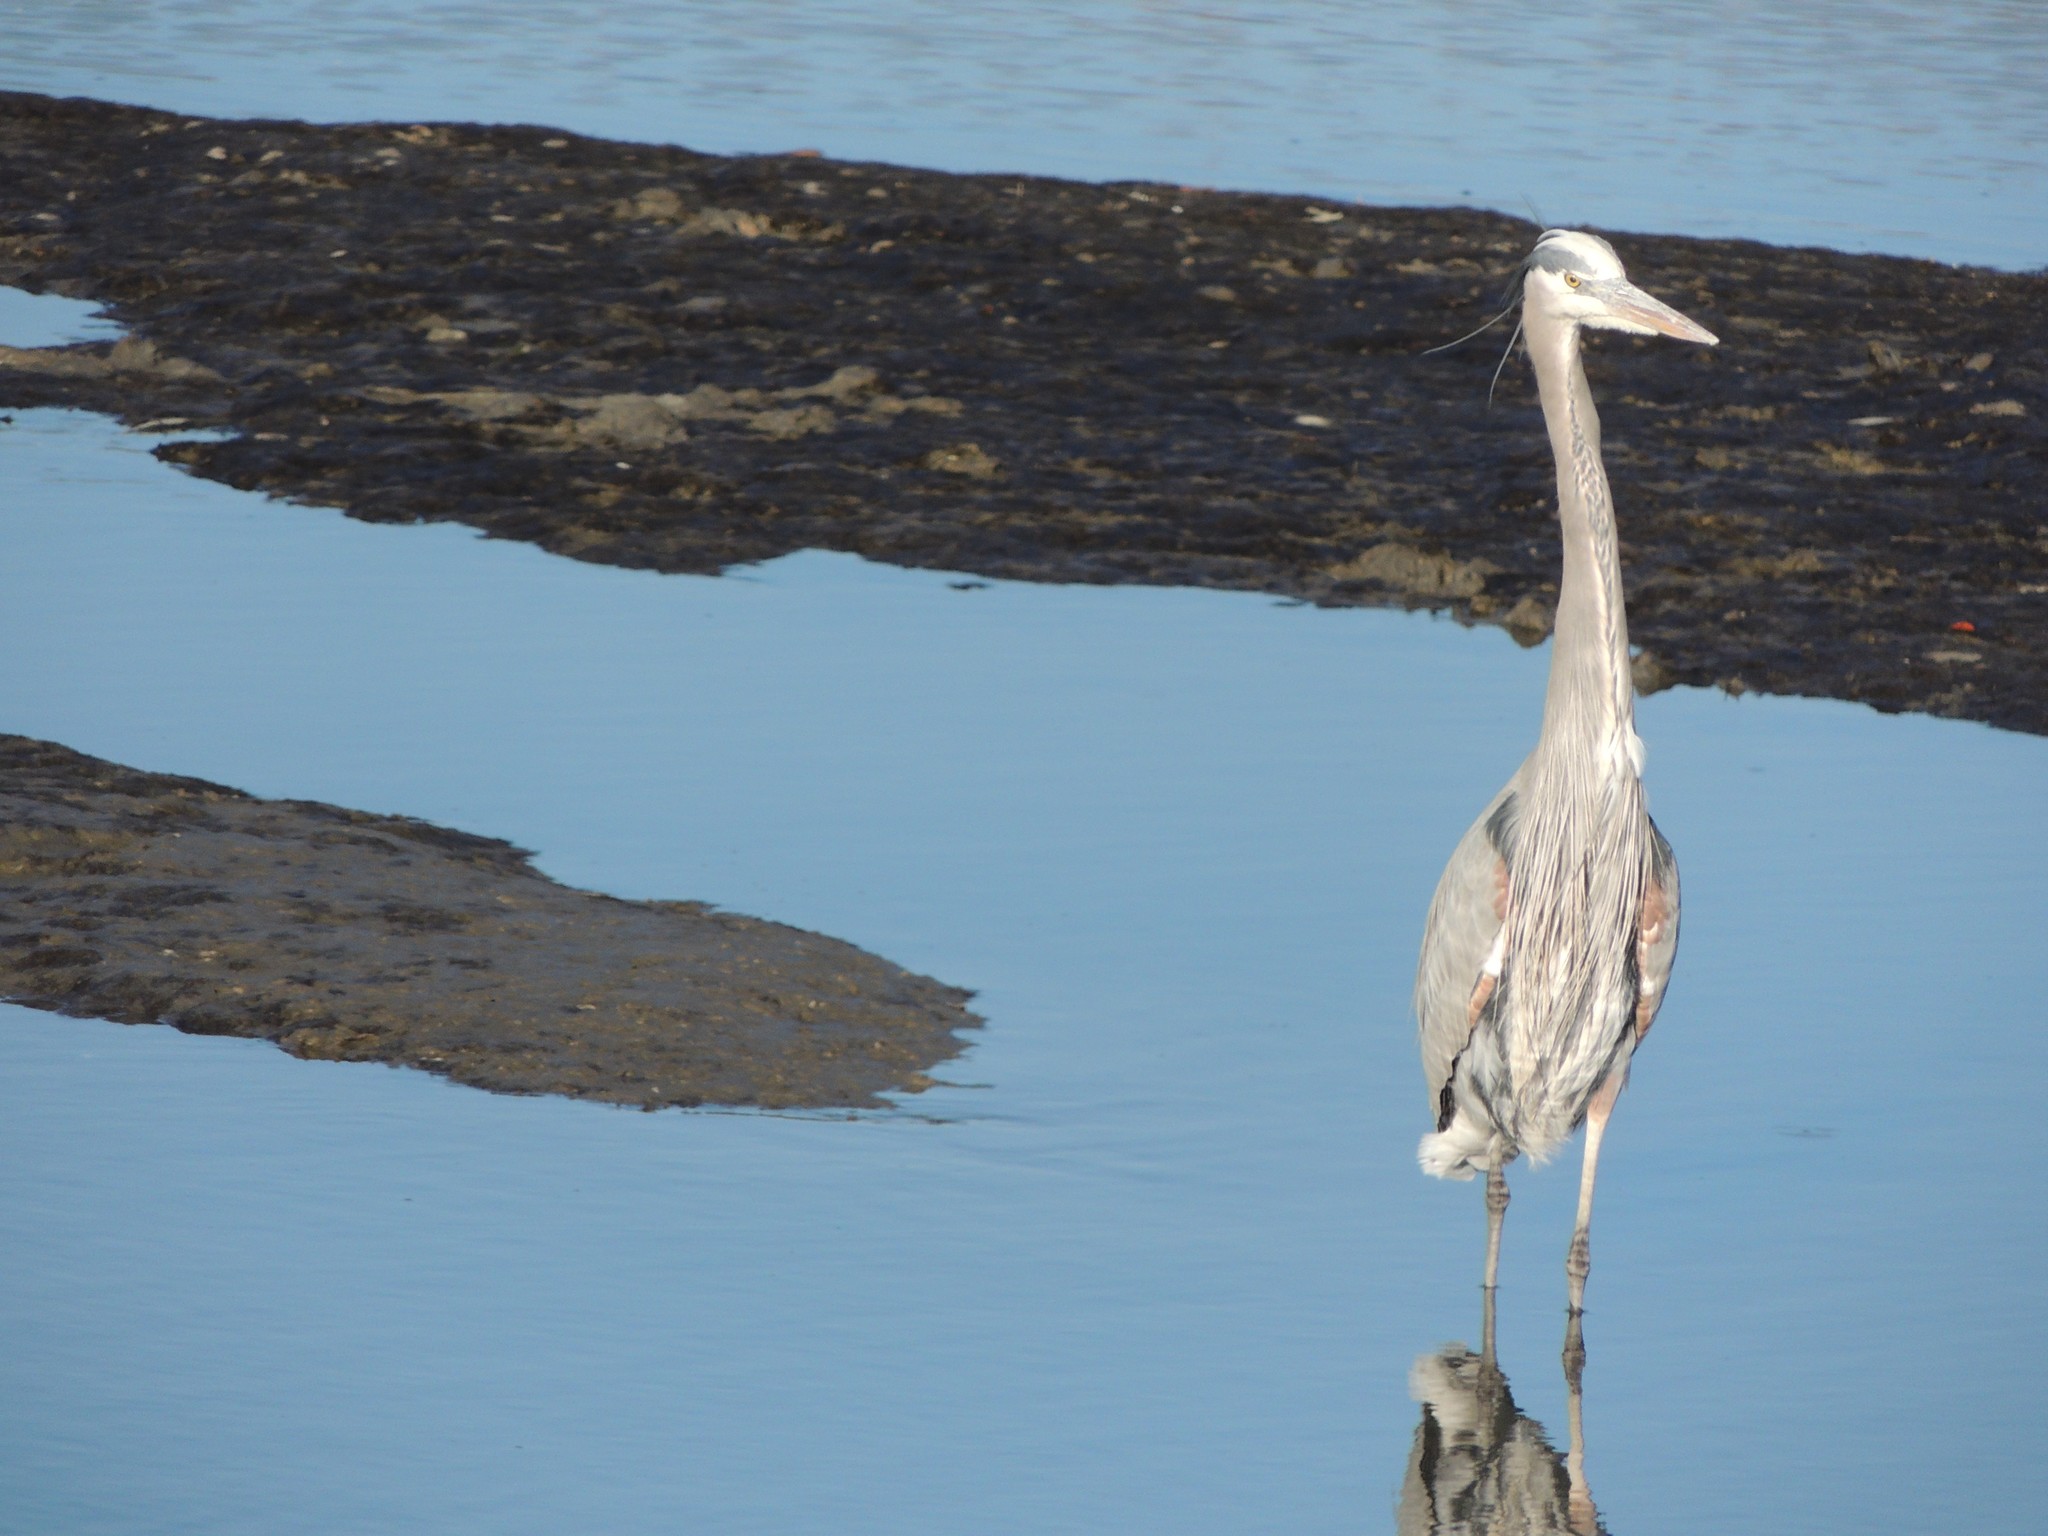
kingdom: Animalia
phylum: Chordata
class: Aves
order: Pelecaniformes
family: Ardeidae
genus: Ardea
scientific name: Ardea herodias
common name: Great blue heron
